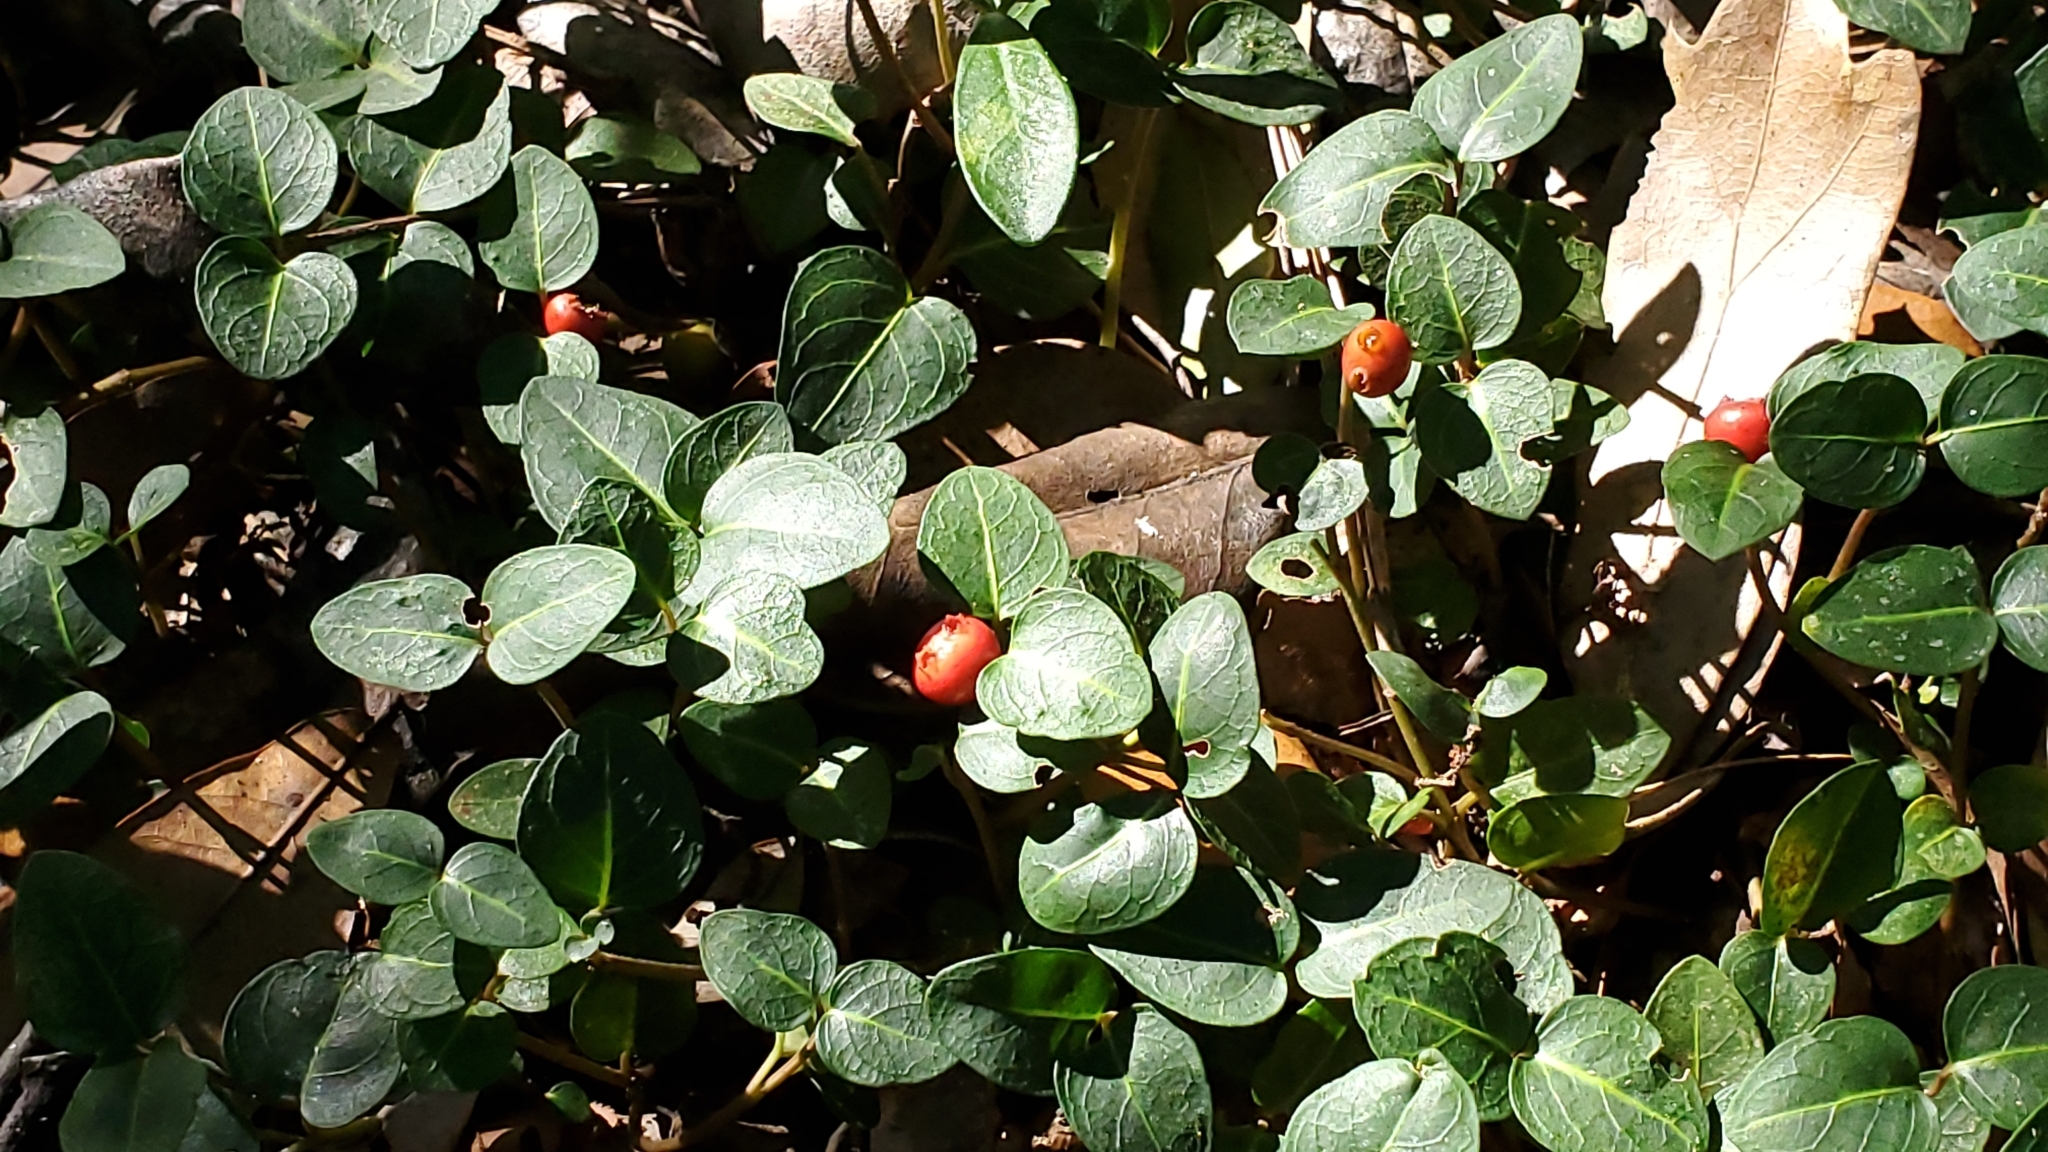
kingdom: Plantae
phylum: Tracheophyta
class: Magnoliopsida
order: Gentianales
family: Rubiaceae
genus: Mitchella
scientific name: Mitchella repens
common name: Partridge-berry
